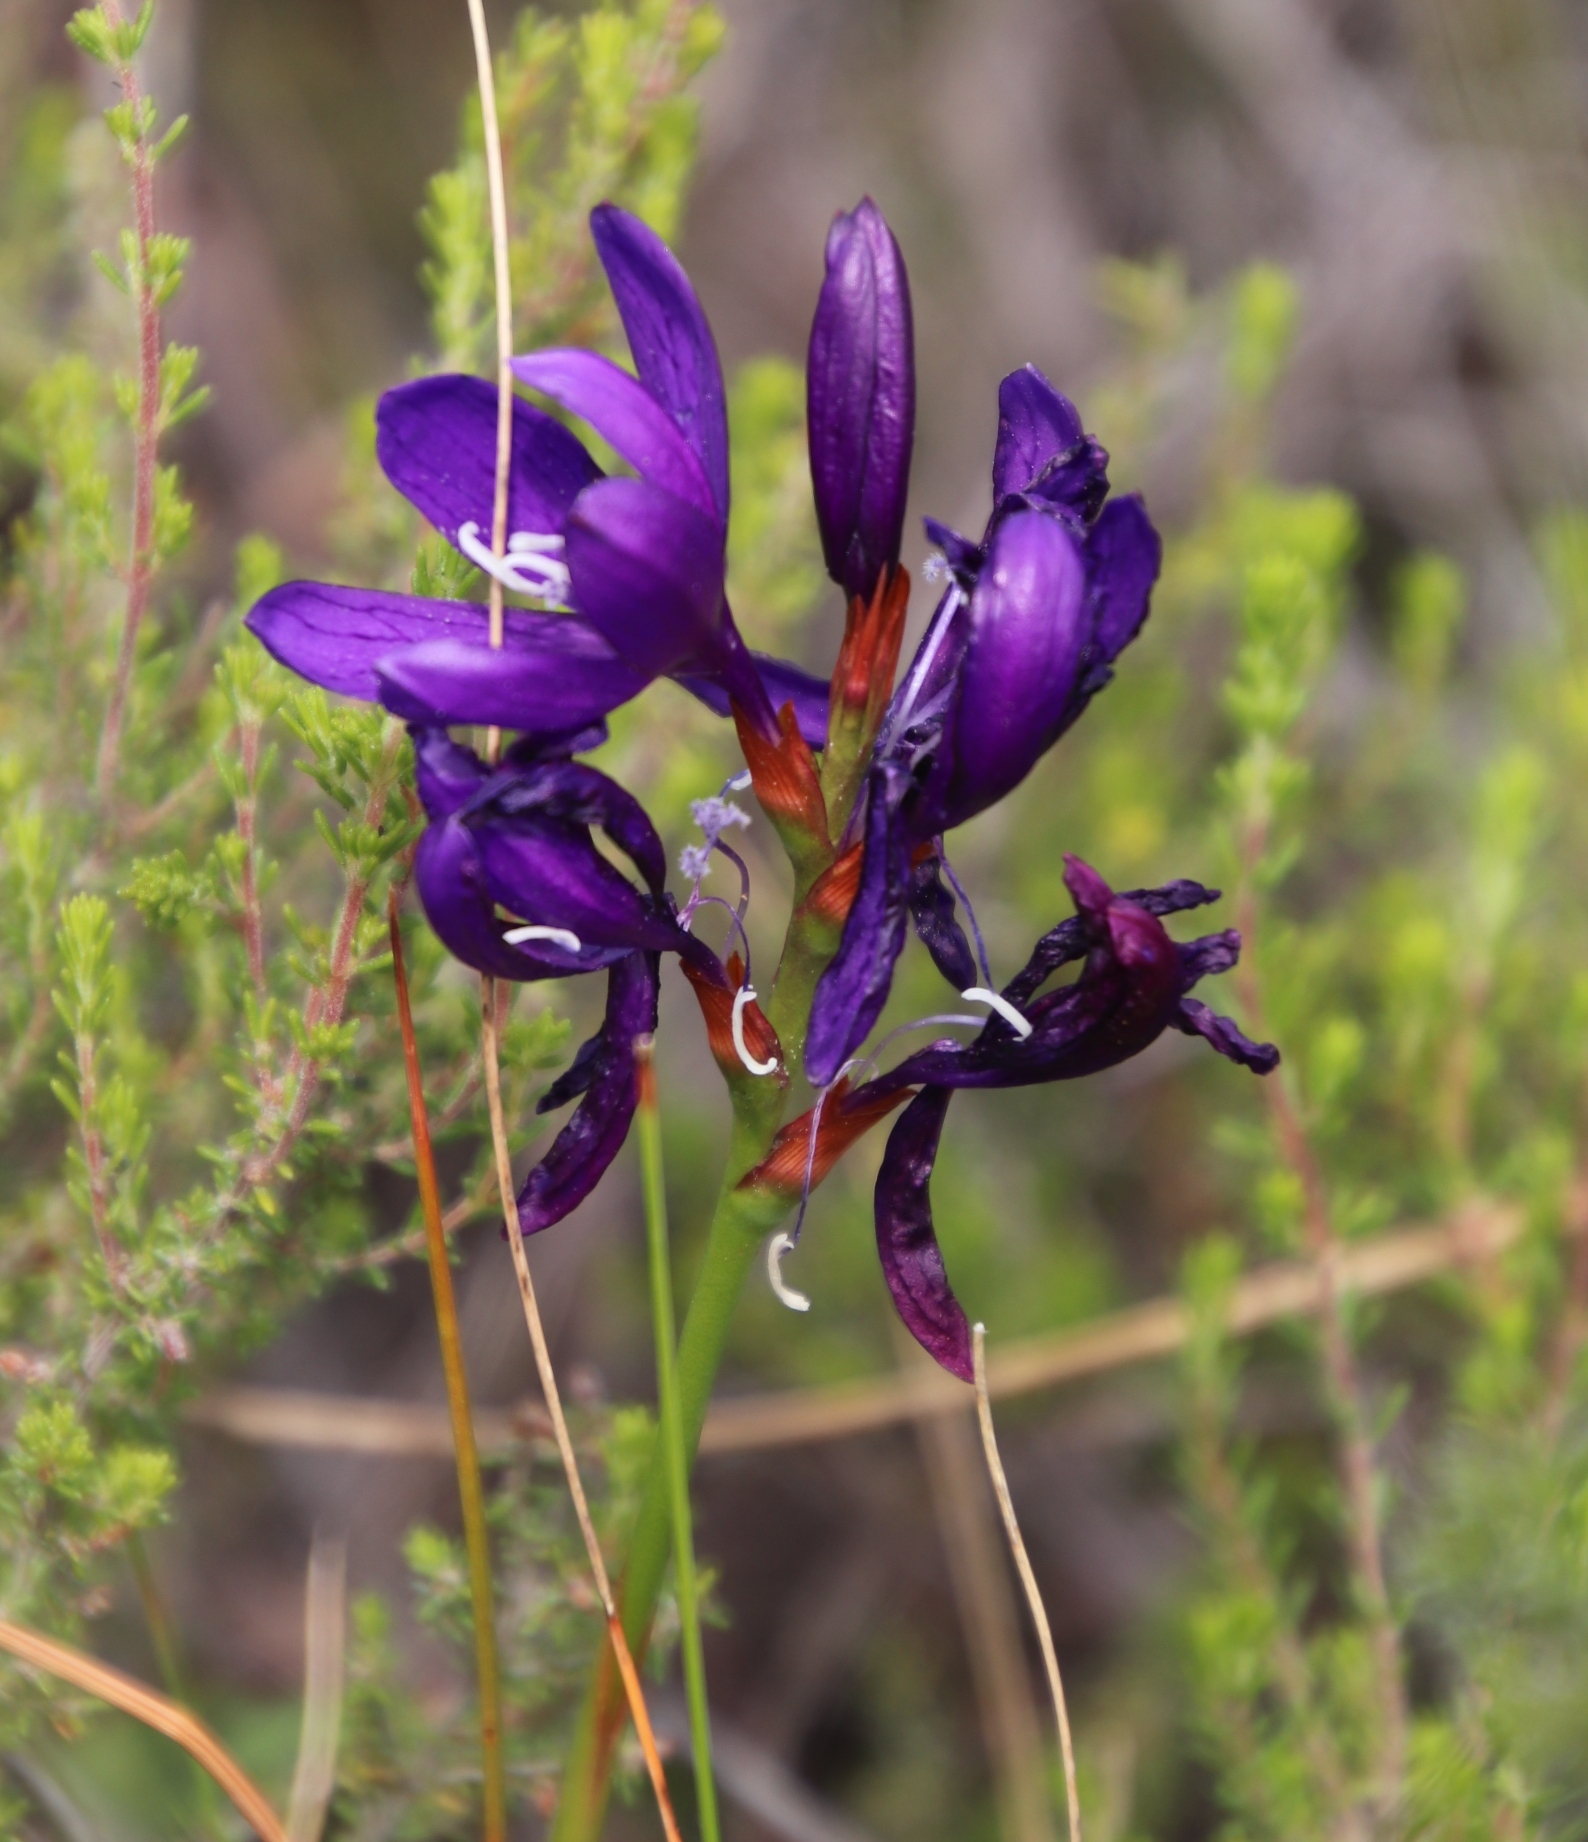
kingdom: Plantae
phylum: Tracheophyta
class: Liliopsida
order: Asparagales
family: Iridaceae
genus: Thereianthus
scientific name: Thereianthus bracteolatus
